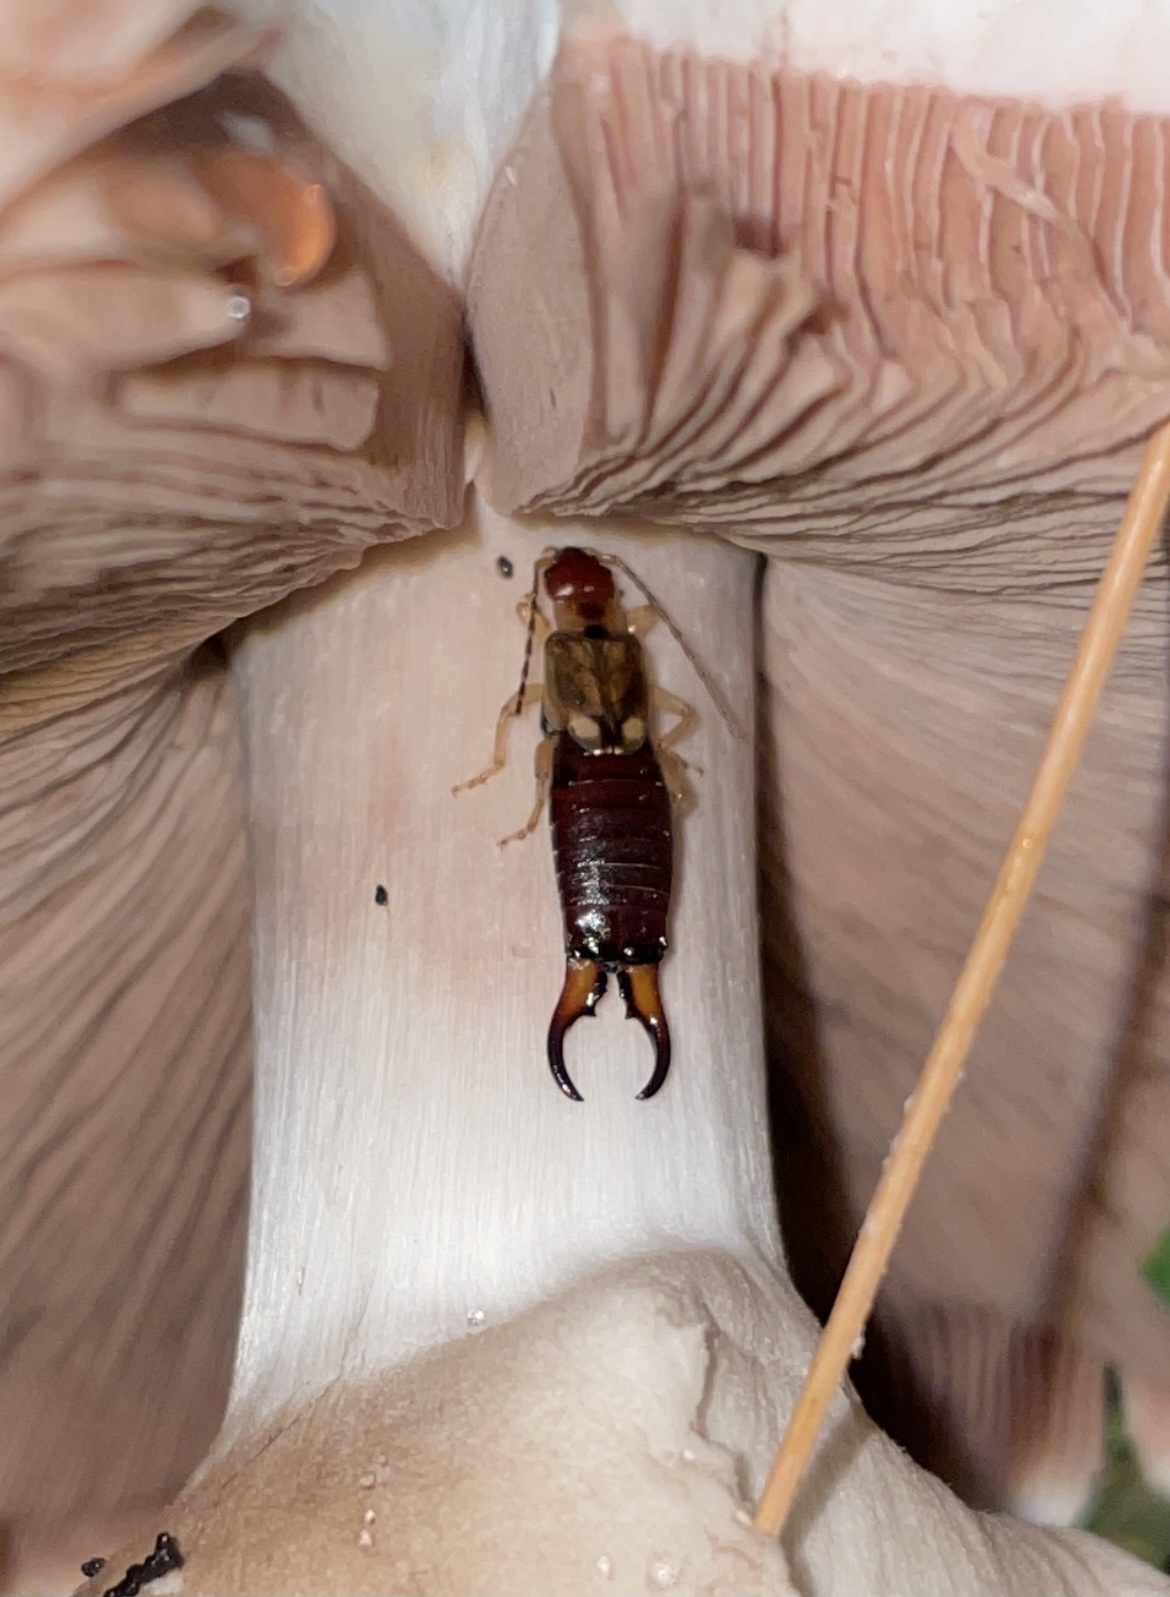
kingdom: Animalia
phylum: Arthropoda
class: Insecta
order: Dermaptera
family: Forficulidae
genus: Forficula
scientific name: Forficula
